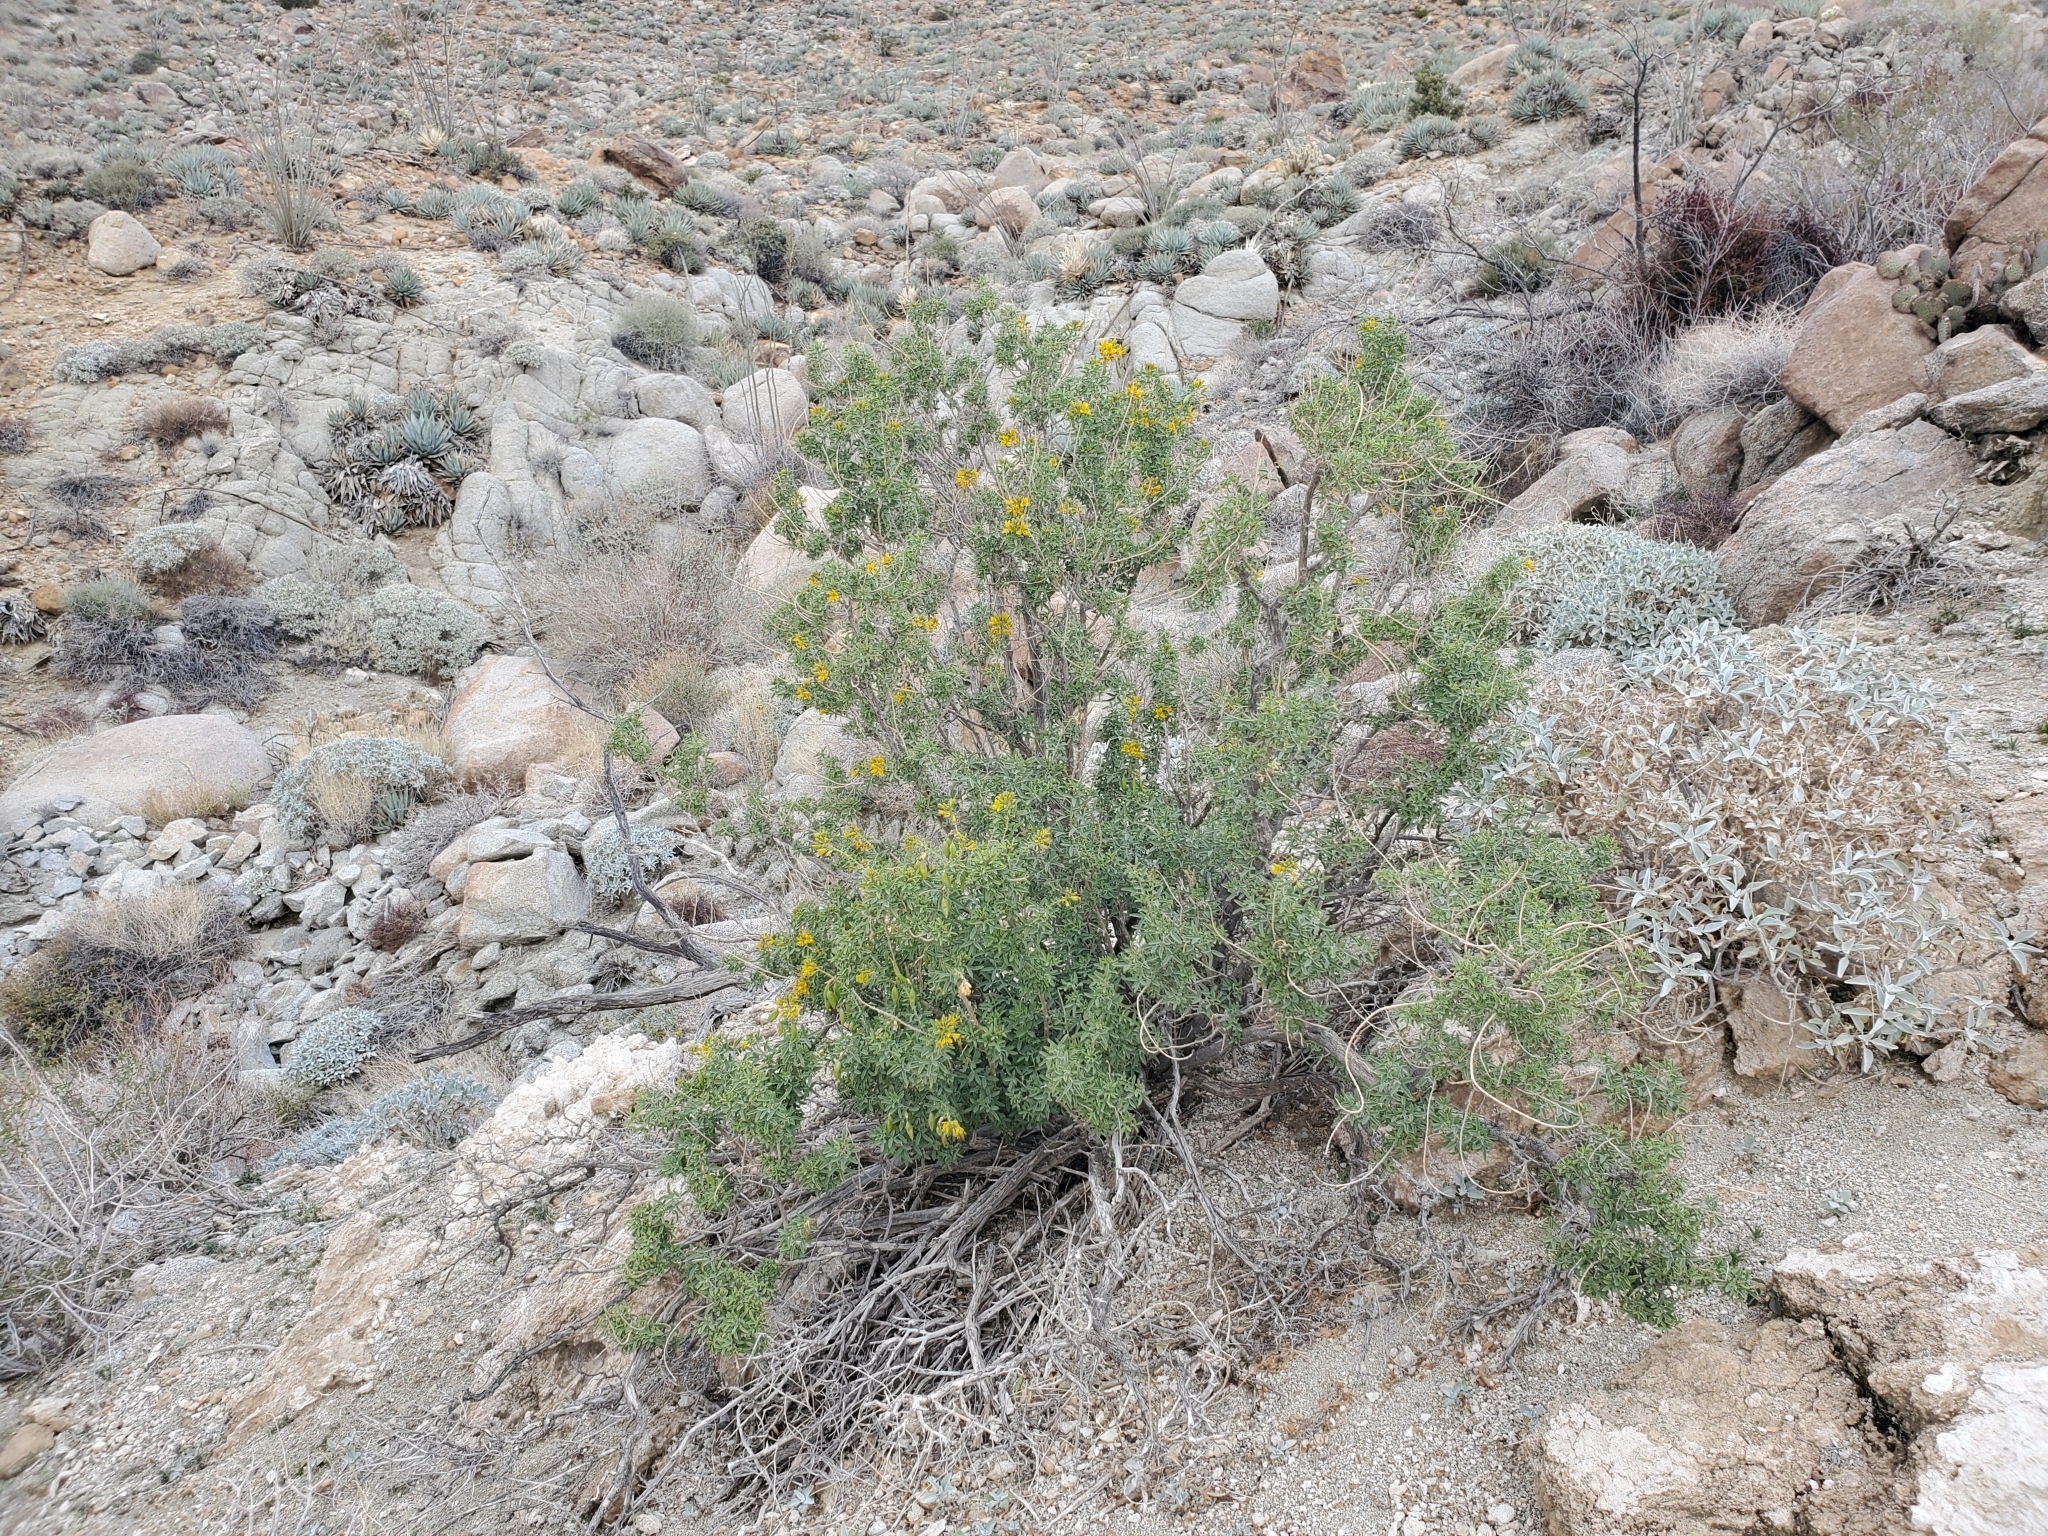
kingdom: Plantae
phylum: Tracheophyta
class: Magnoliopsida
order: Brassicales
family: Cleomaceae
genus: Cleomella
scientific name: Cleomella arborea
